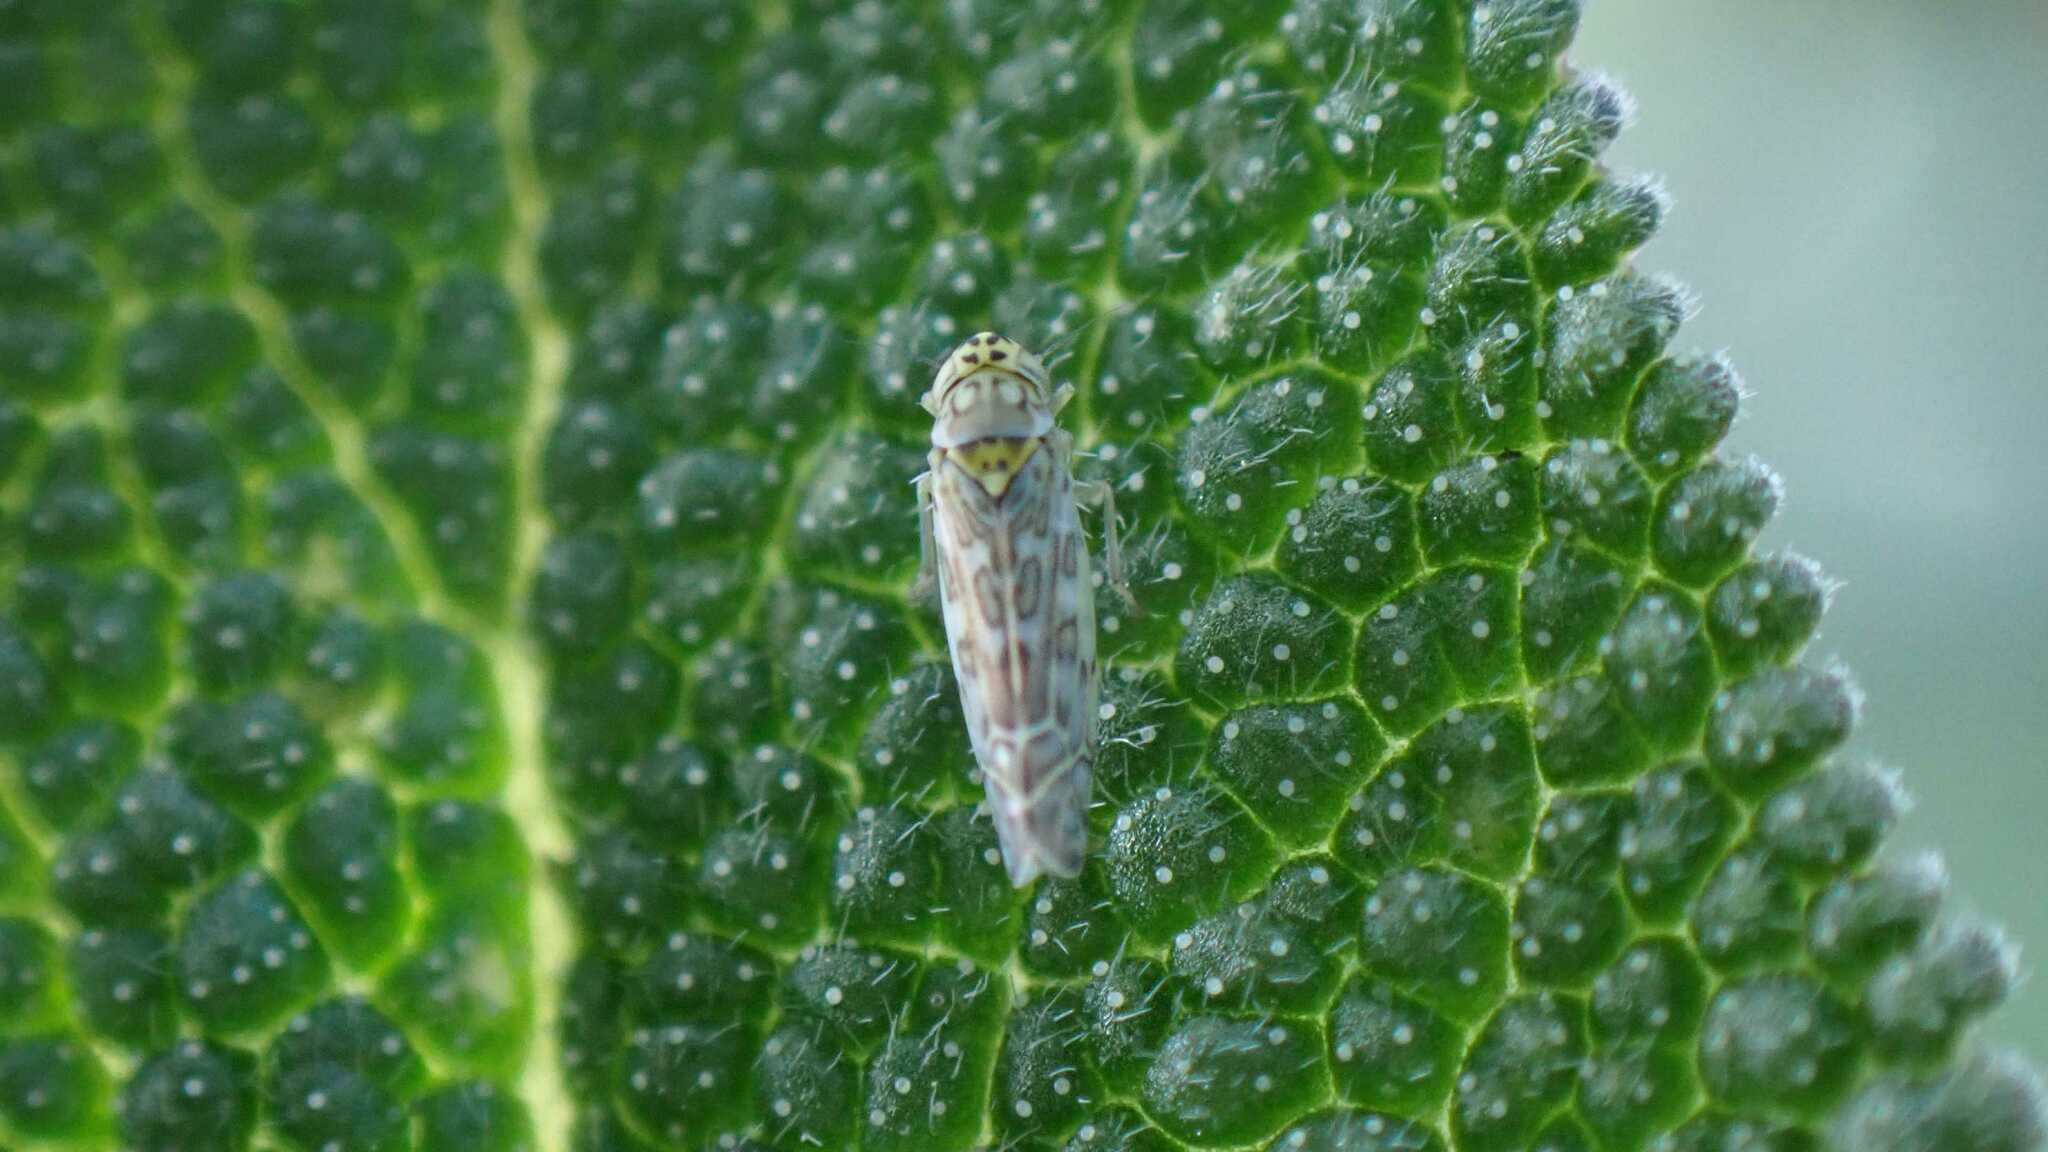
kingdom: Animalia
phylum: Arthropoda
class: Insecta
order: Hemiptera
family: Cicadellidae
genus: Eupteryx
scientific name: Eupteryx decemnotata
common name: Ligurian leafhopper
